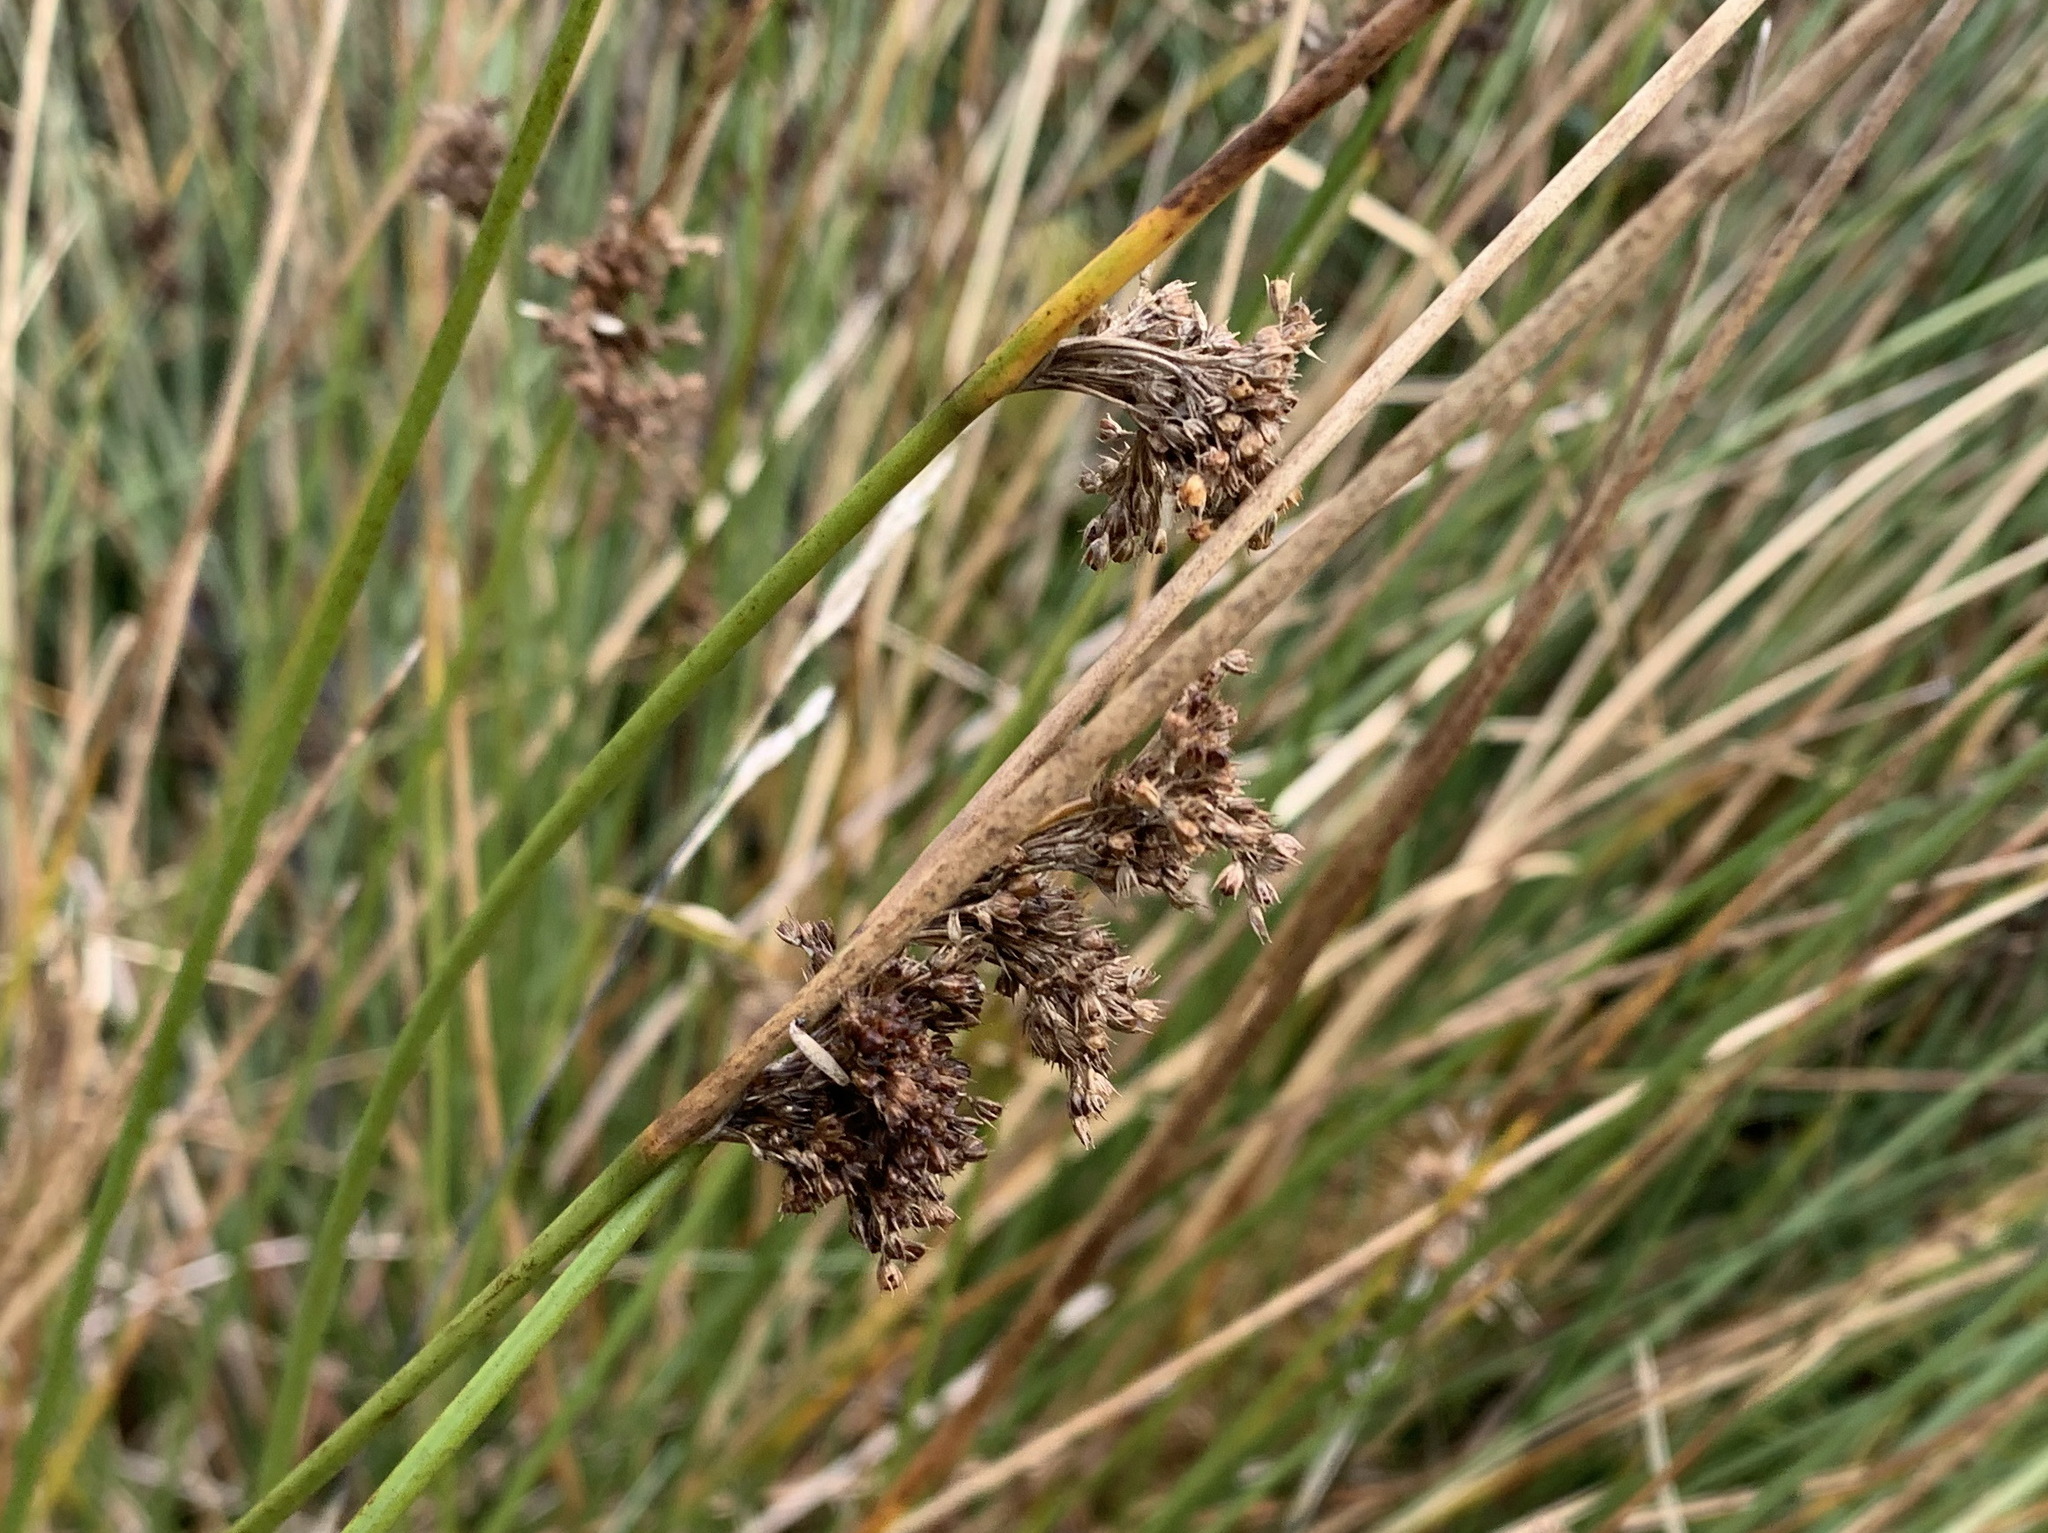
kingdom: Plantae
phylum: Tracheophyta
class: Liliopsida
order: Poales
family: Juncaceae
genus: Juncus
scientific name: Juncus effusus
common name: Soft rush
